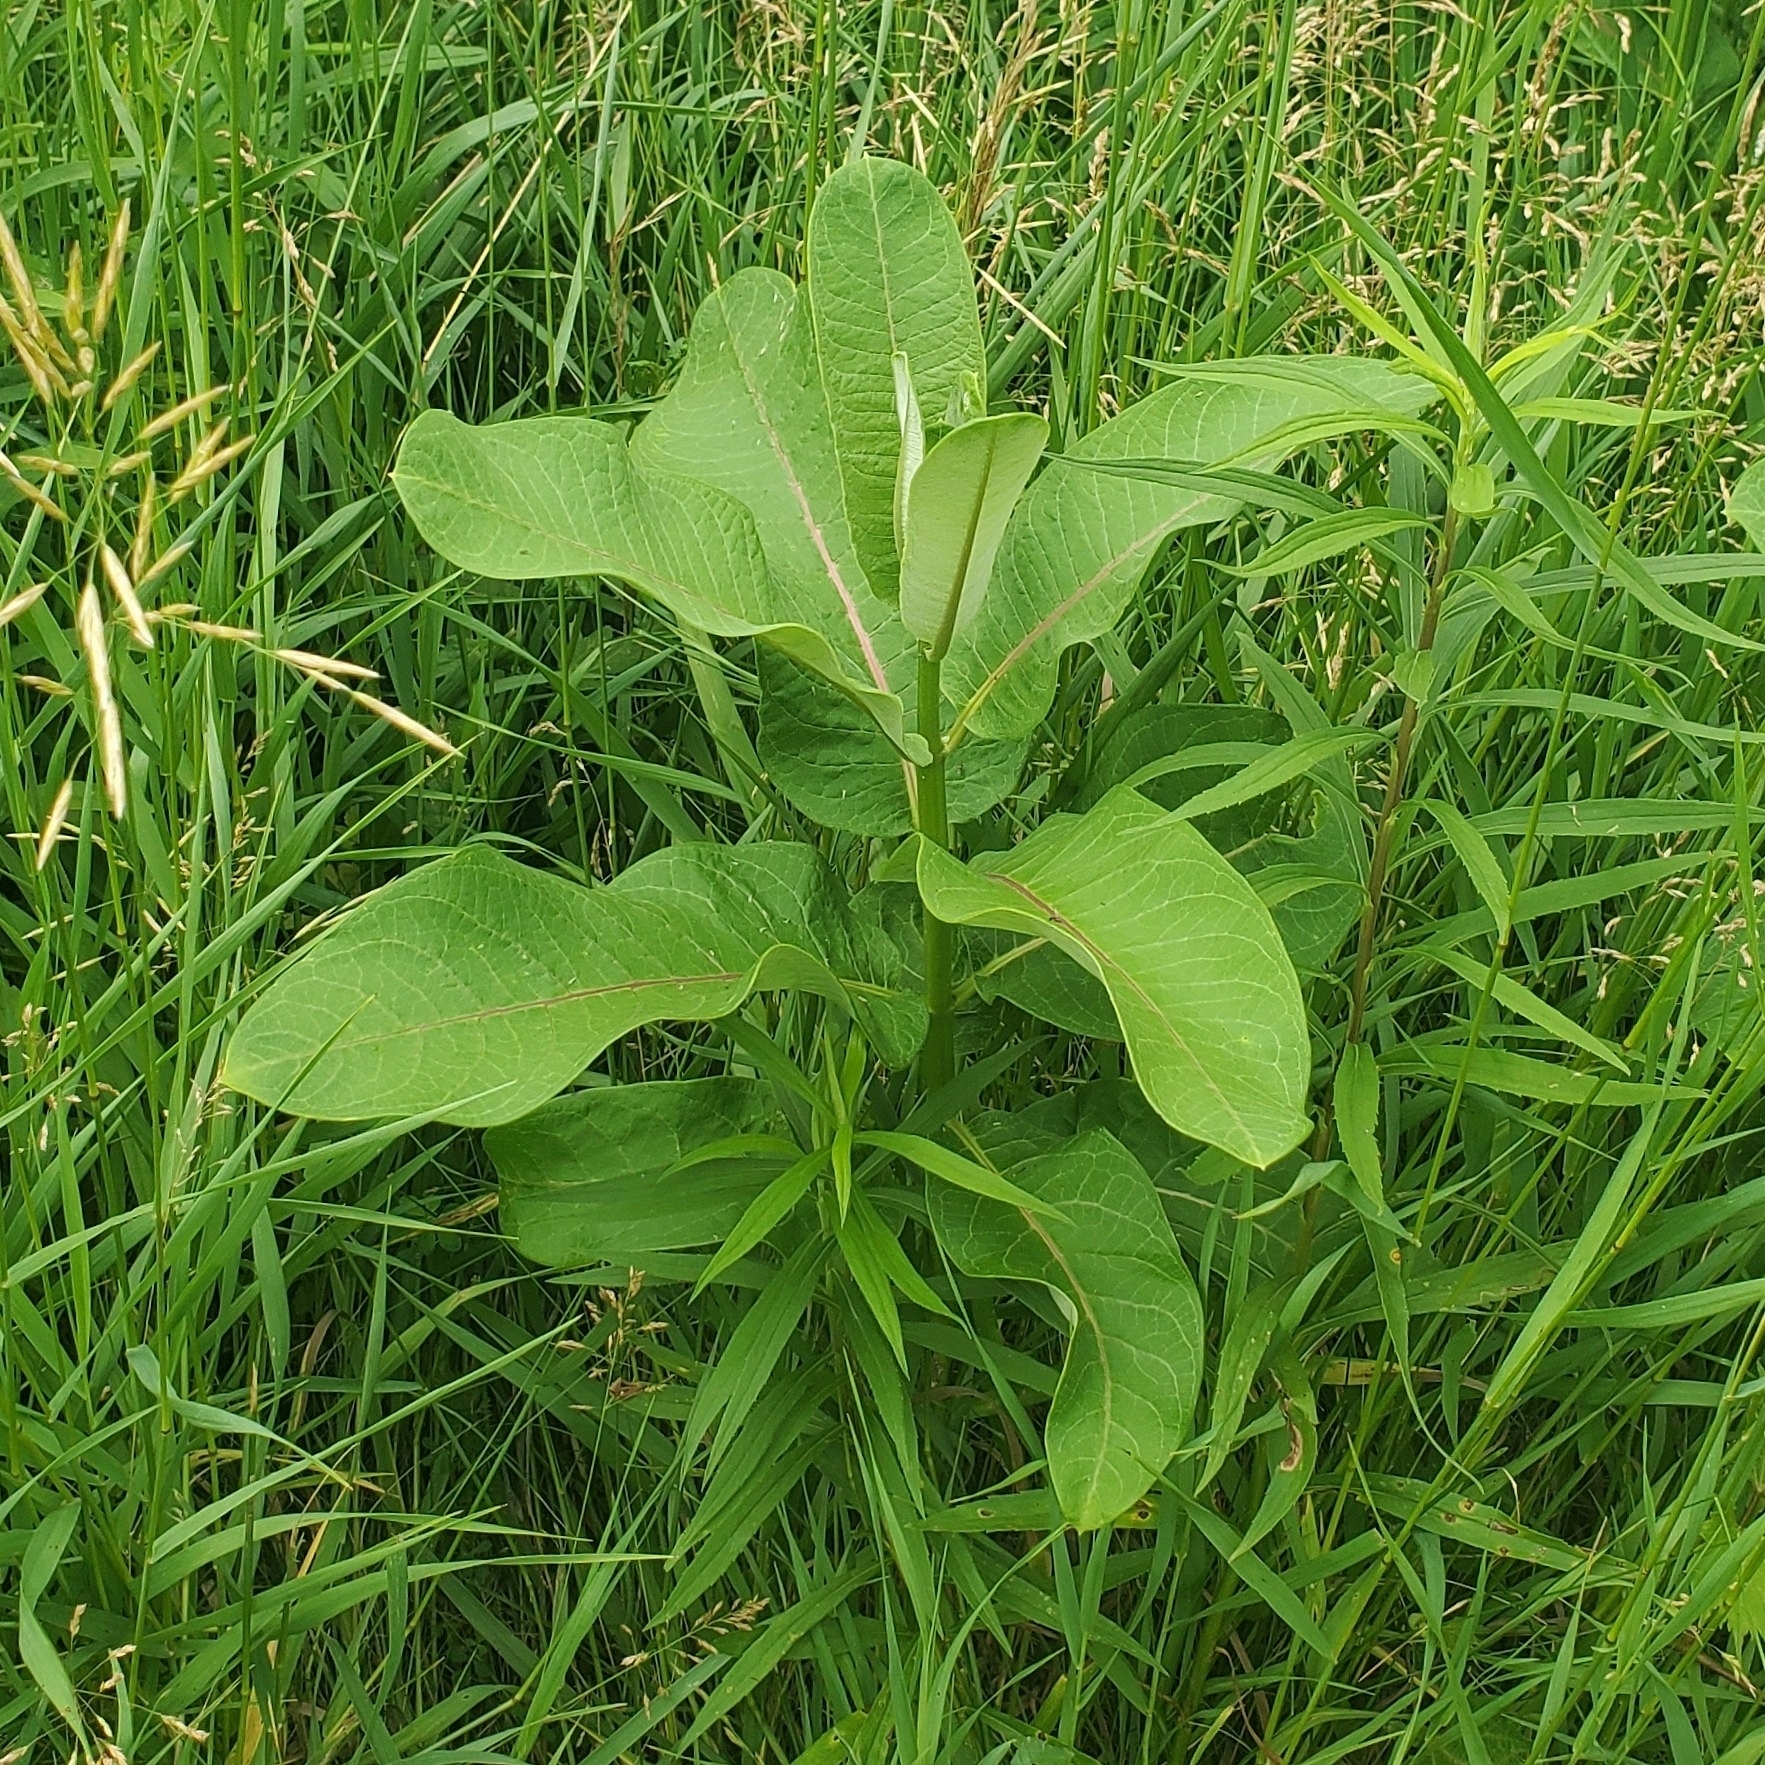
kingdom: Plantae
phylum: Tracheophyta
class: Magnoliopsida
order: Gentianales
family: Apocynaceae
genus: Asclepias
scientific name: Asclepias syriaca
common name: Common milkweed
